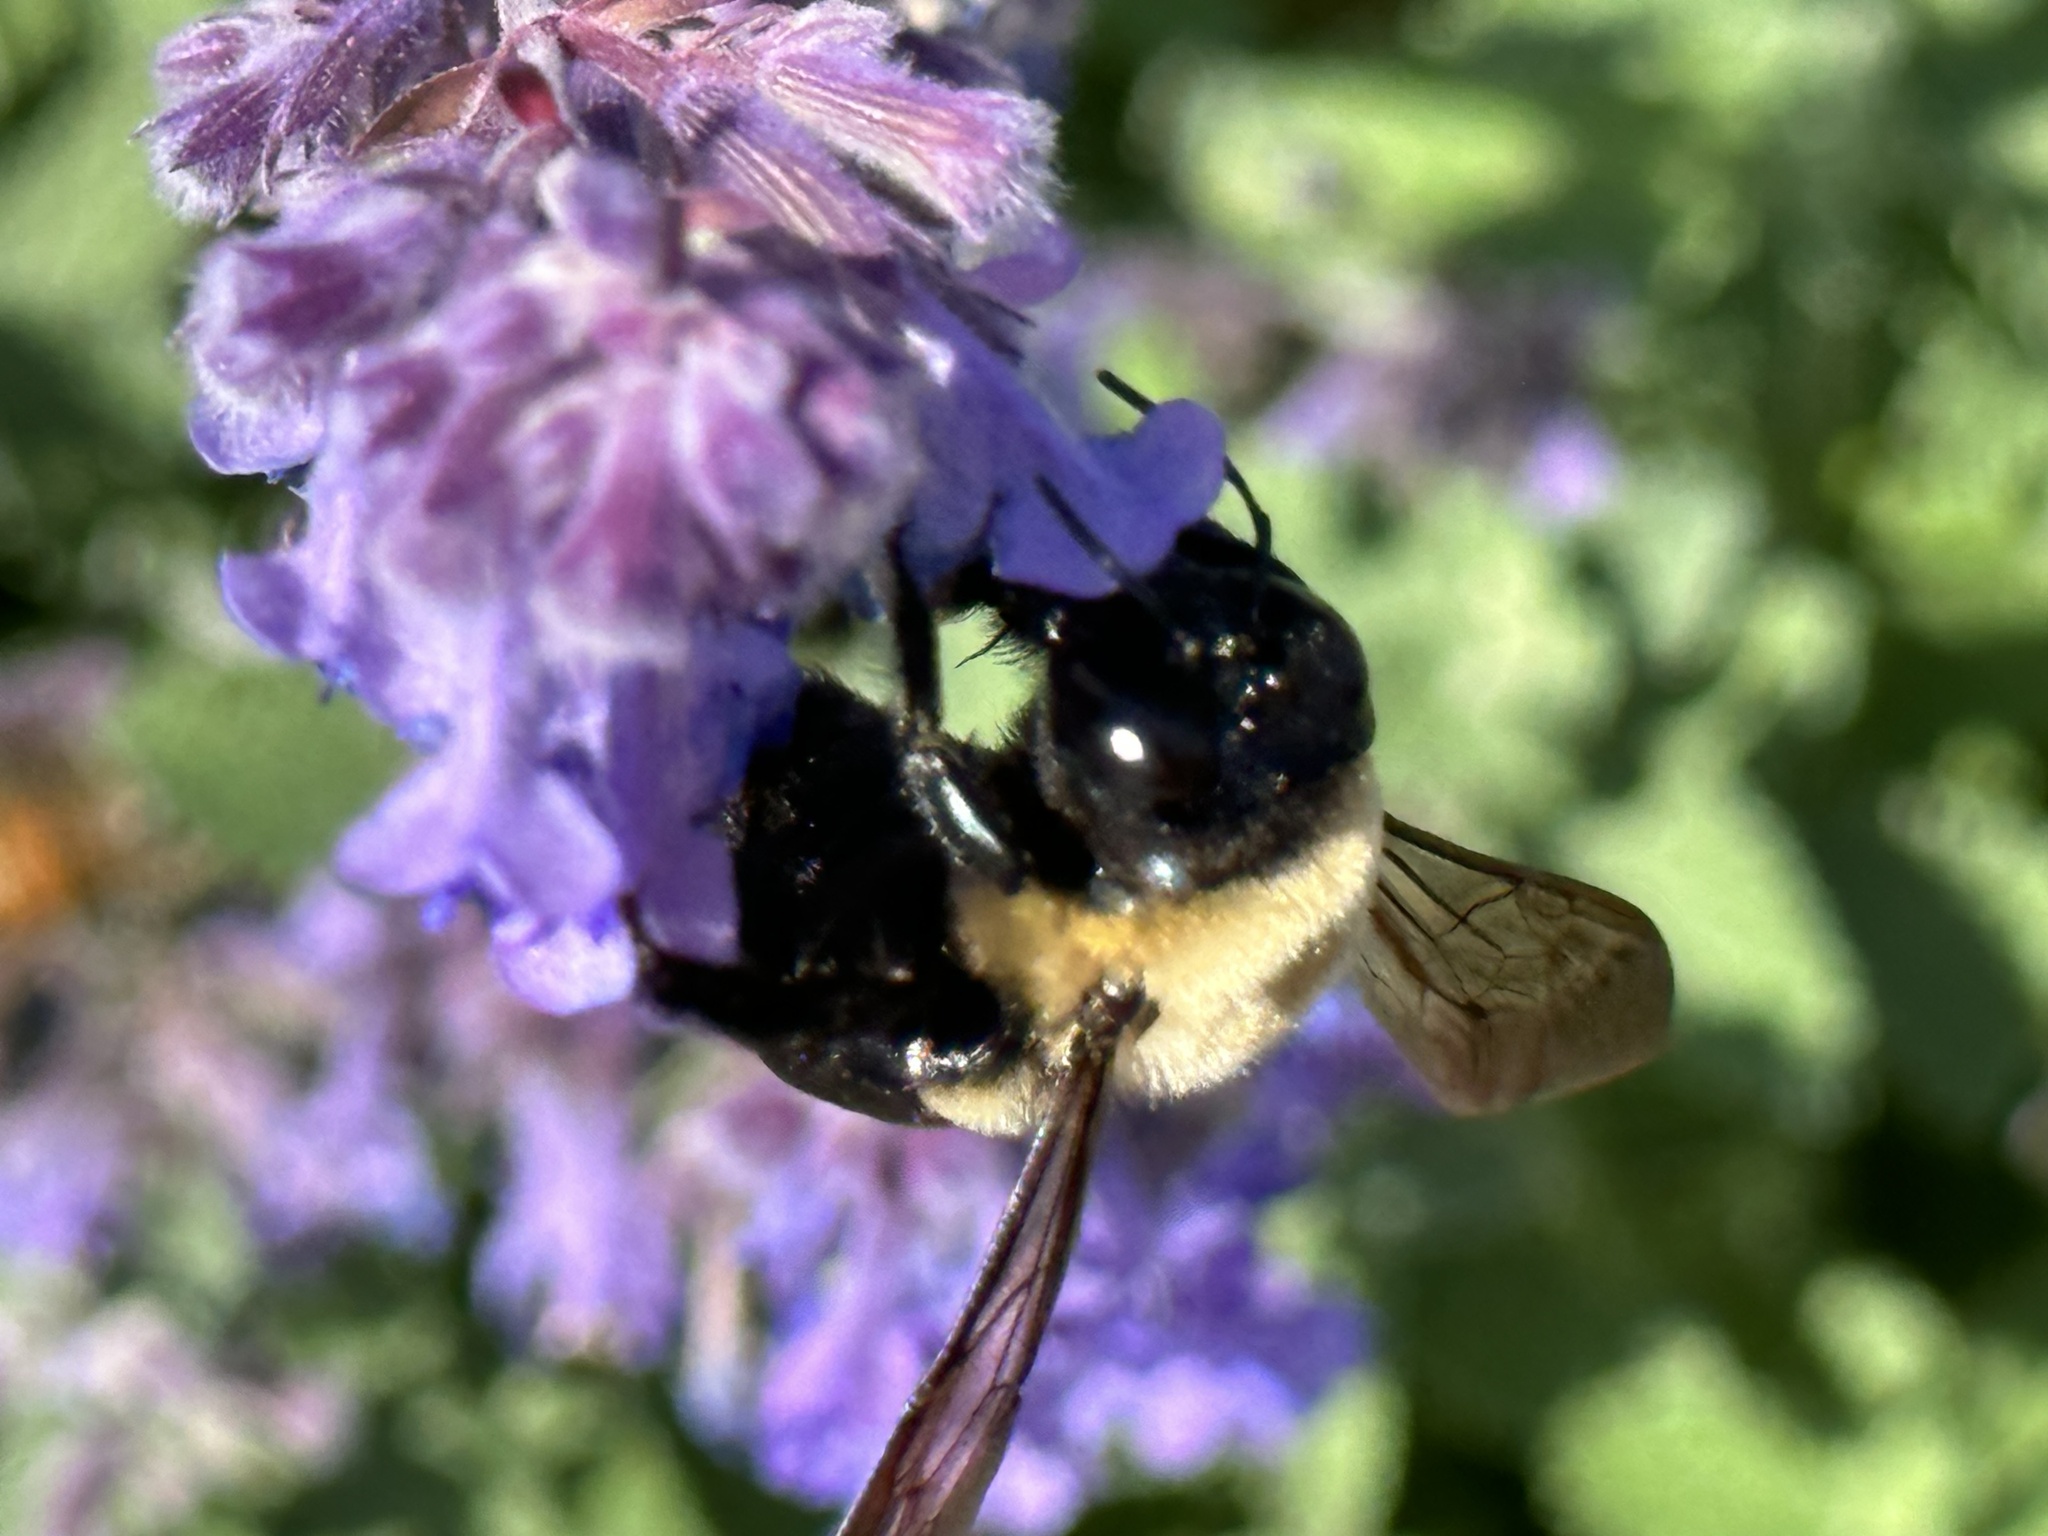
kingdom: Animalia
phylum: Arthropoda
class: Insecta
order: Hymenoptera
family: Apidae
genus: Xylocopa
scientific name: Xylocopa virginica
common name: Carpenter bee
